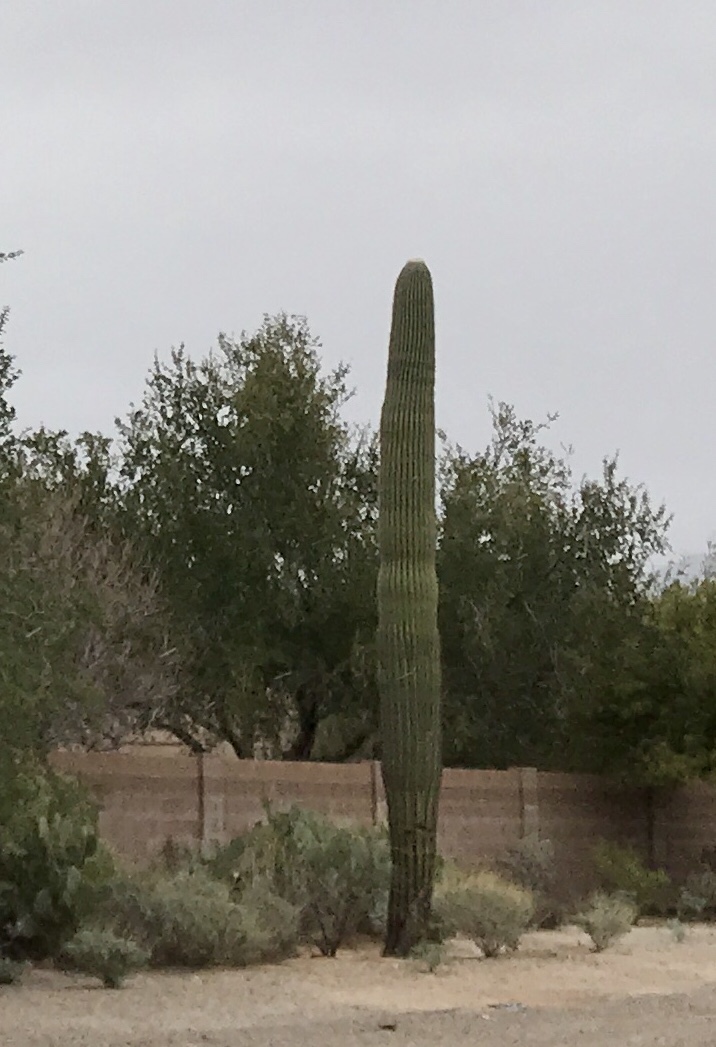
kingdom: Plantae
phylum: Tracheophyta
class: Magnoliopsida
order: Caryophyllales
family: Cactaceae
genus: Carnegiea
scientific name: Carnegiea gigantea
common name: Saguaro
